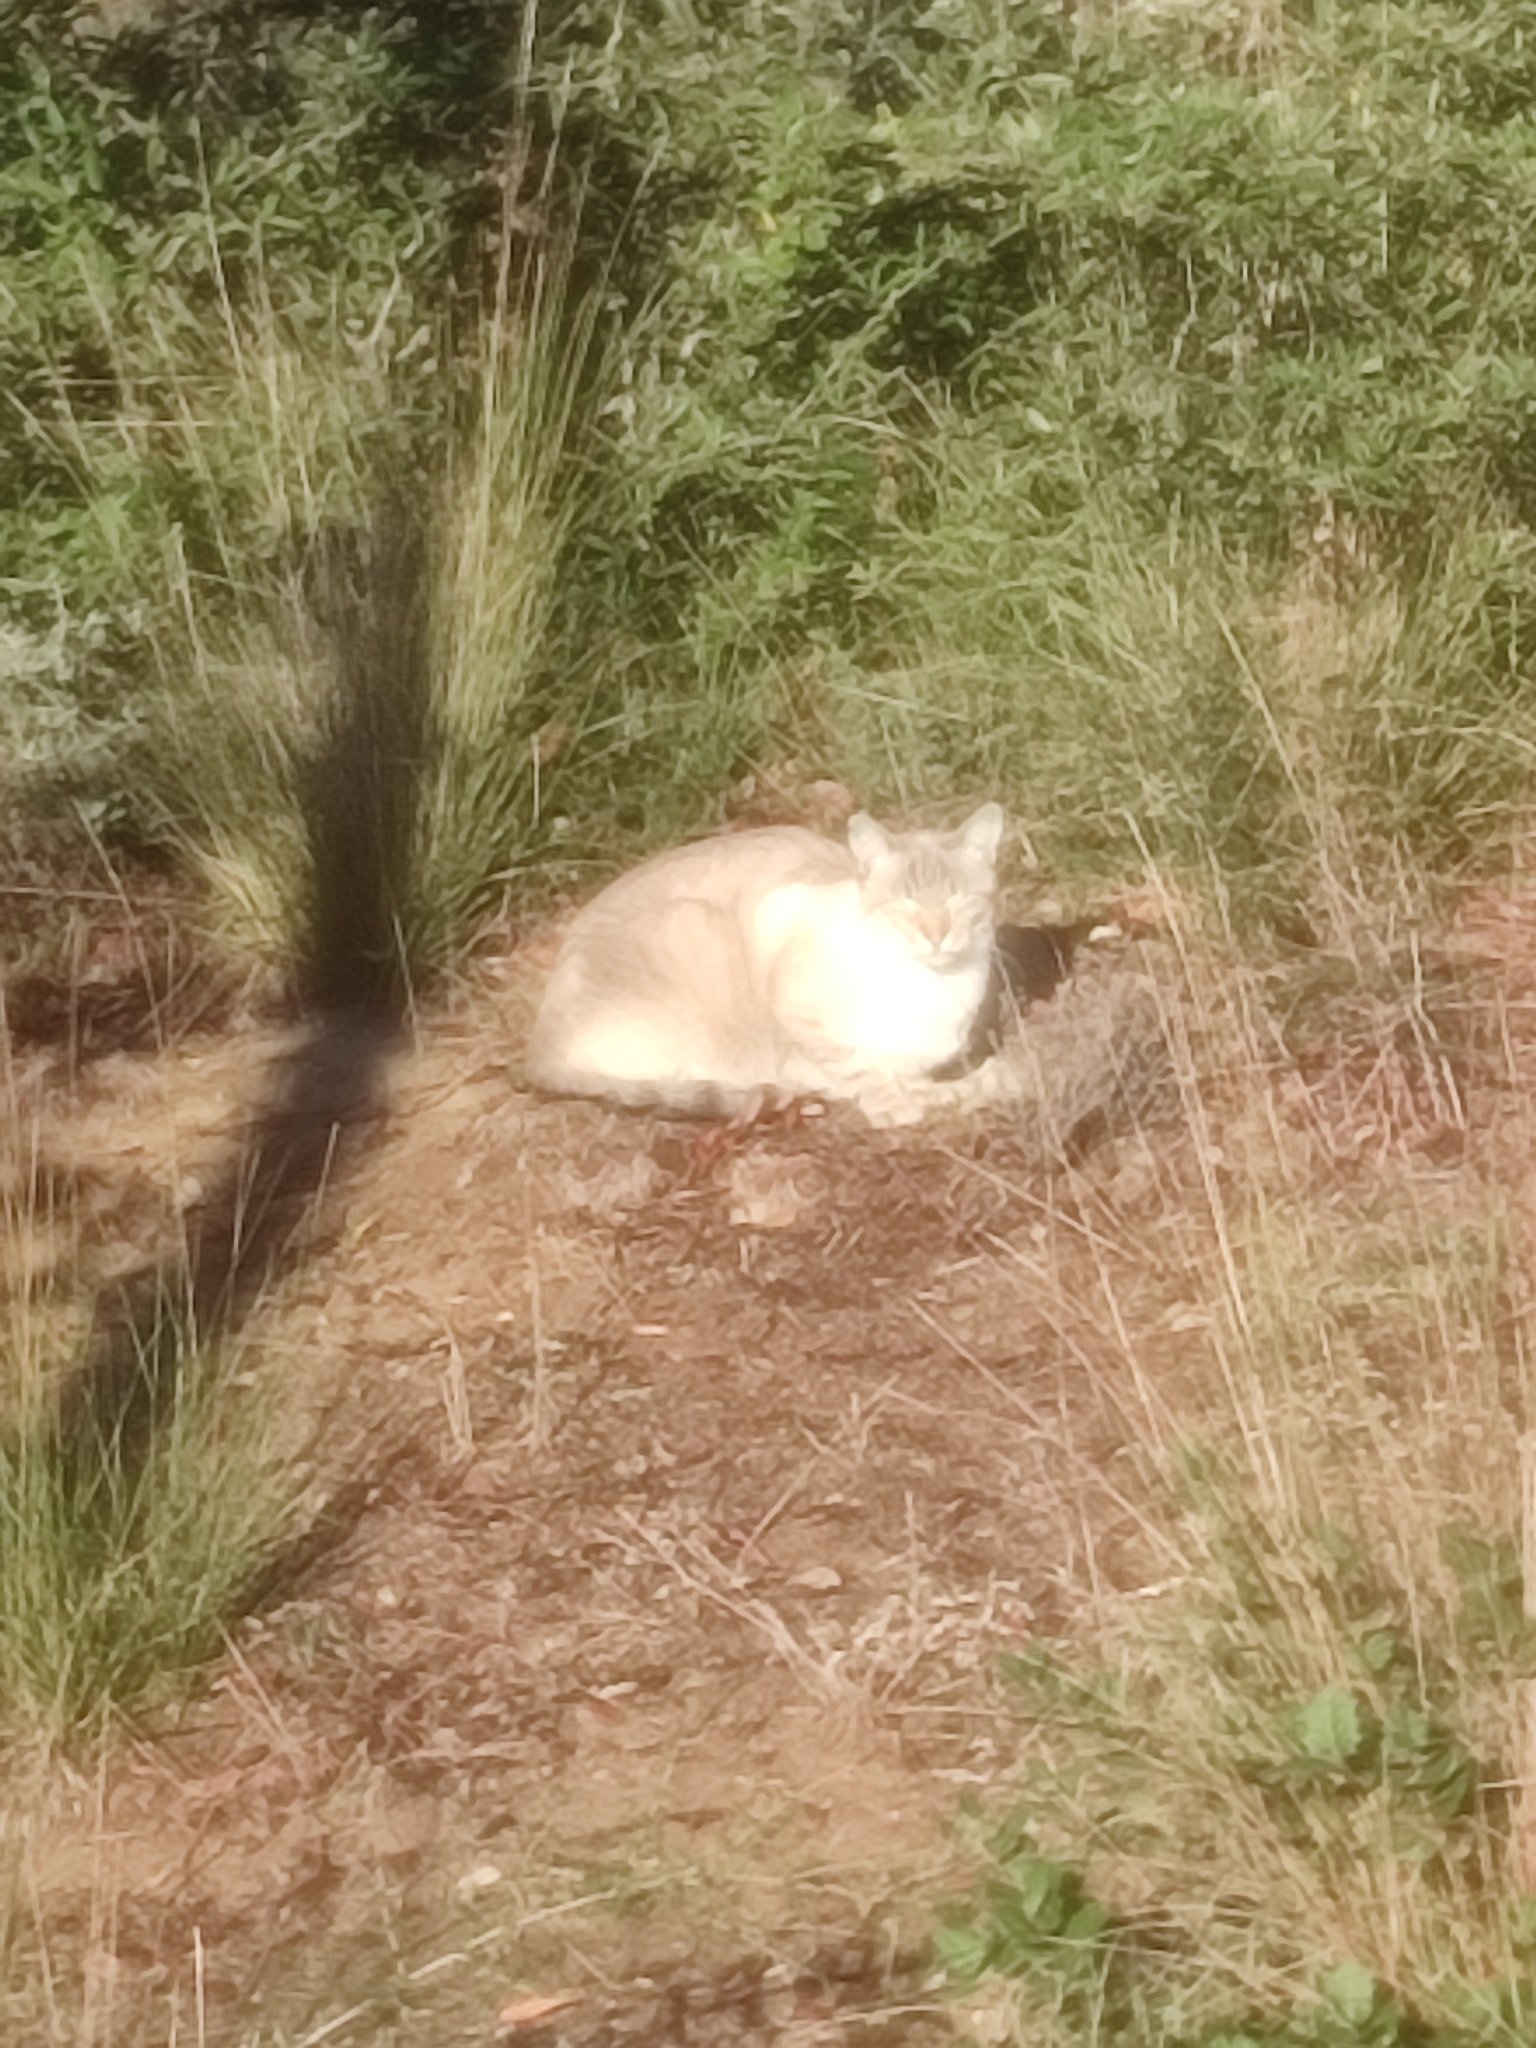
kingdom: Animalia
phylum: Chordata
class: Mammalia
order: Carnivora
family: Felidae
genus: Felis
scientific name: Felis catus
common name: Domestic cat
